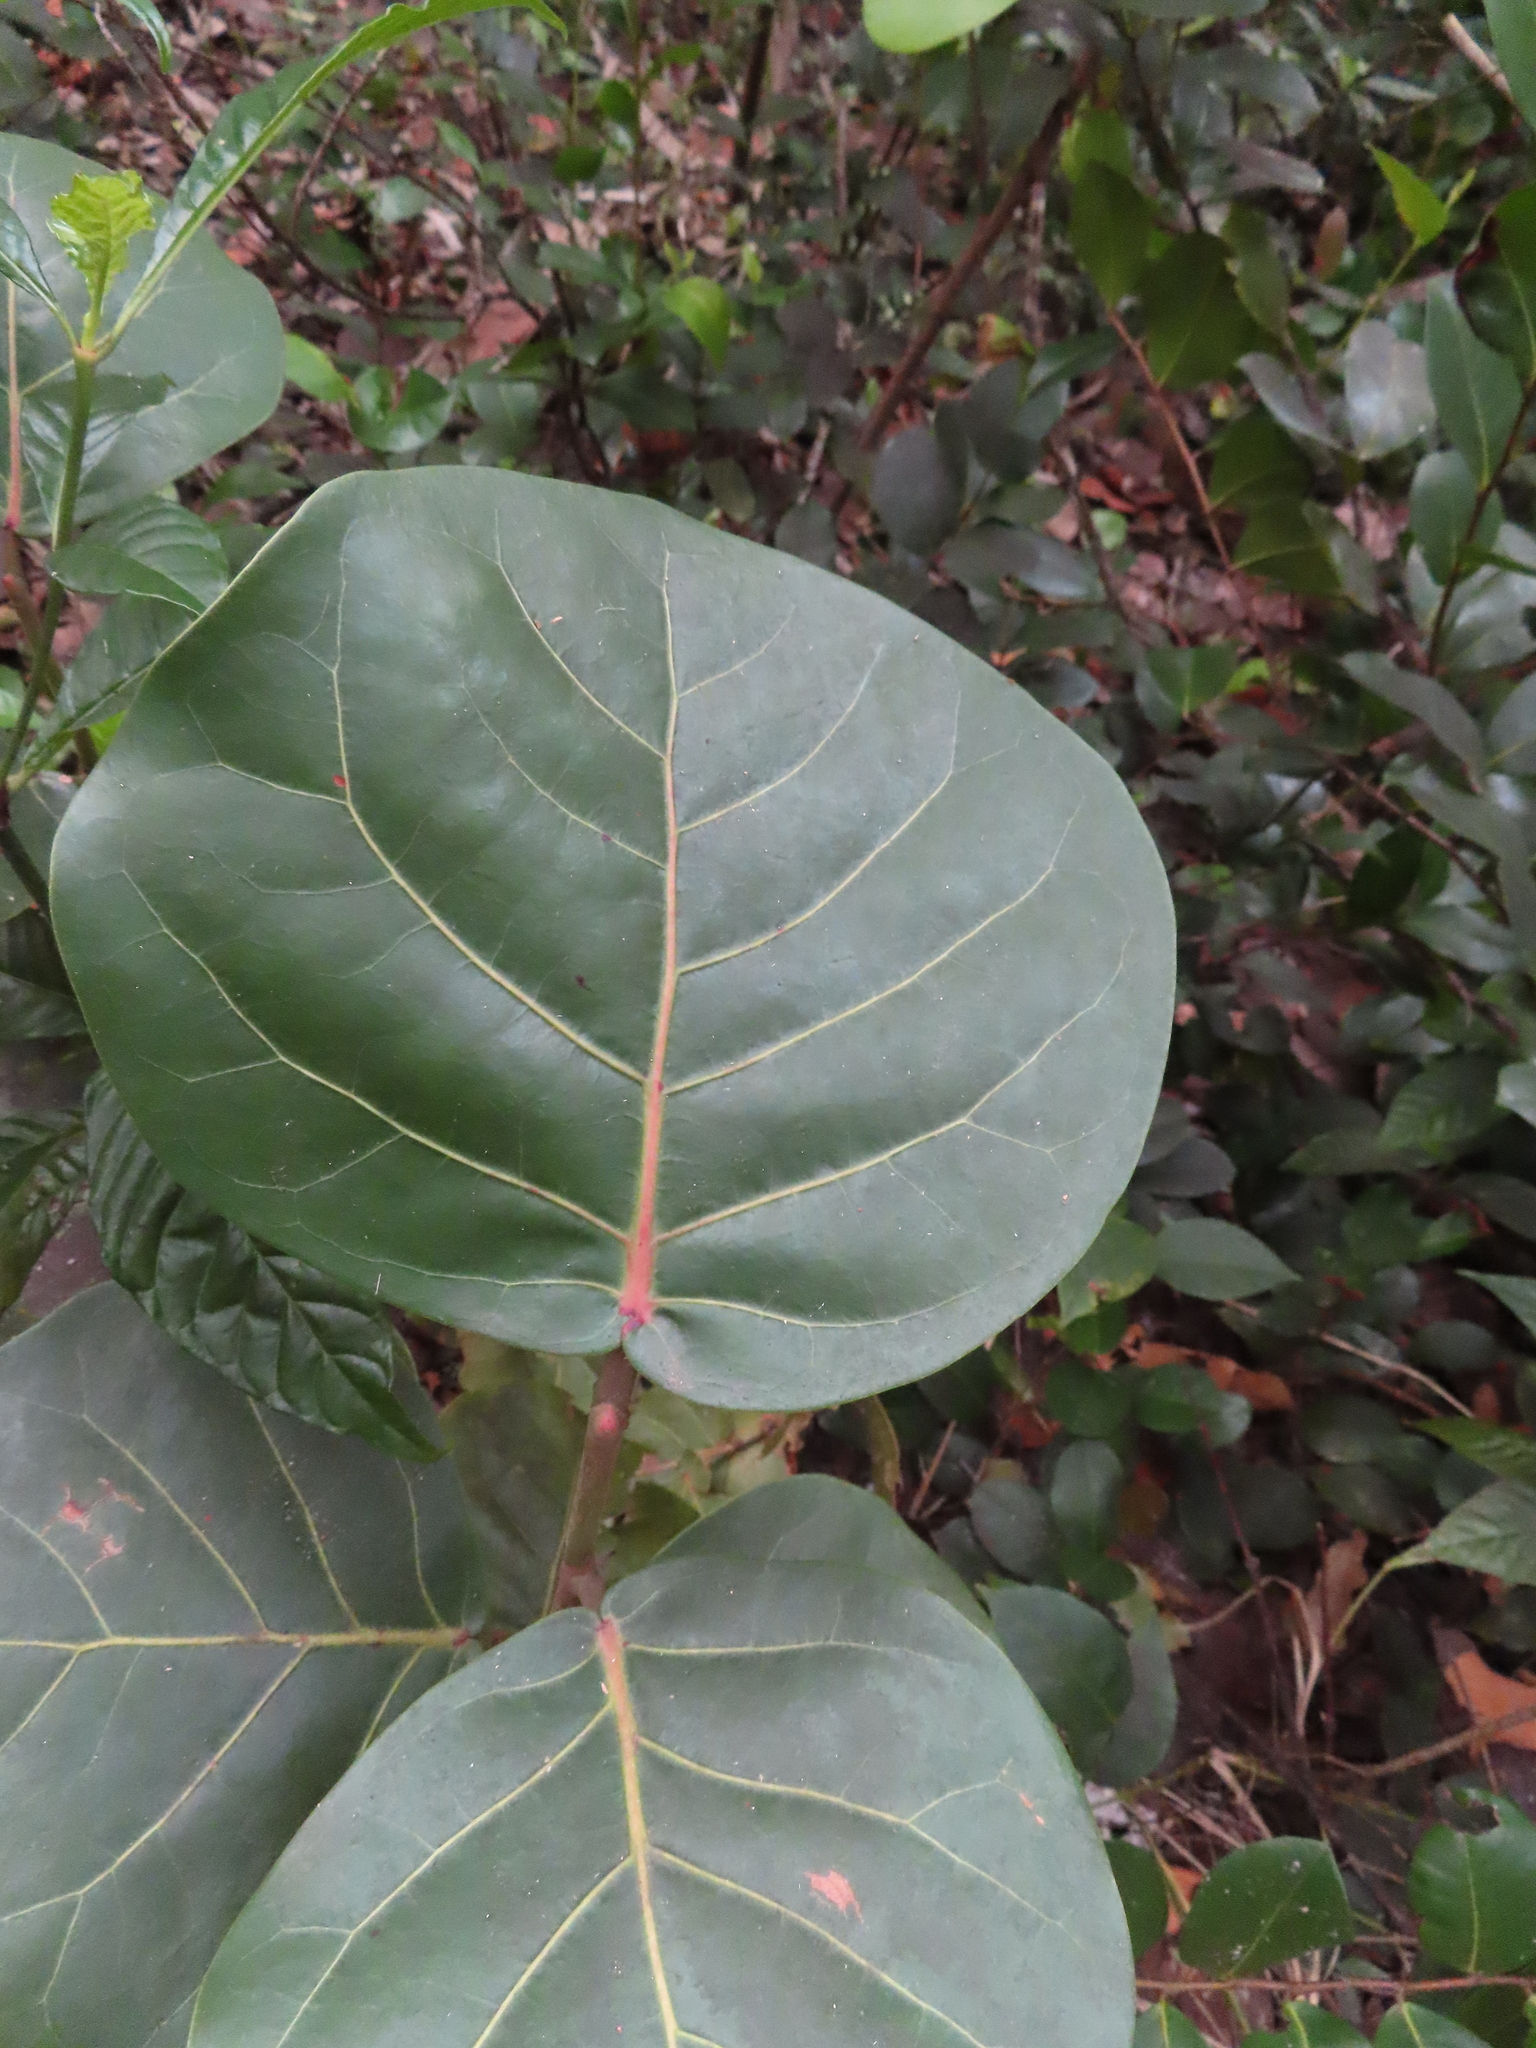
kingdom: Plantae
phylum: Tracheophyta
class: Magnoliopsida
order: Caryophyllales
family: Polygonaceae
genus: Coccoloba
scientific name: Coccoloba uvifera
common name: Seagrape
